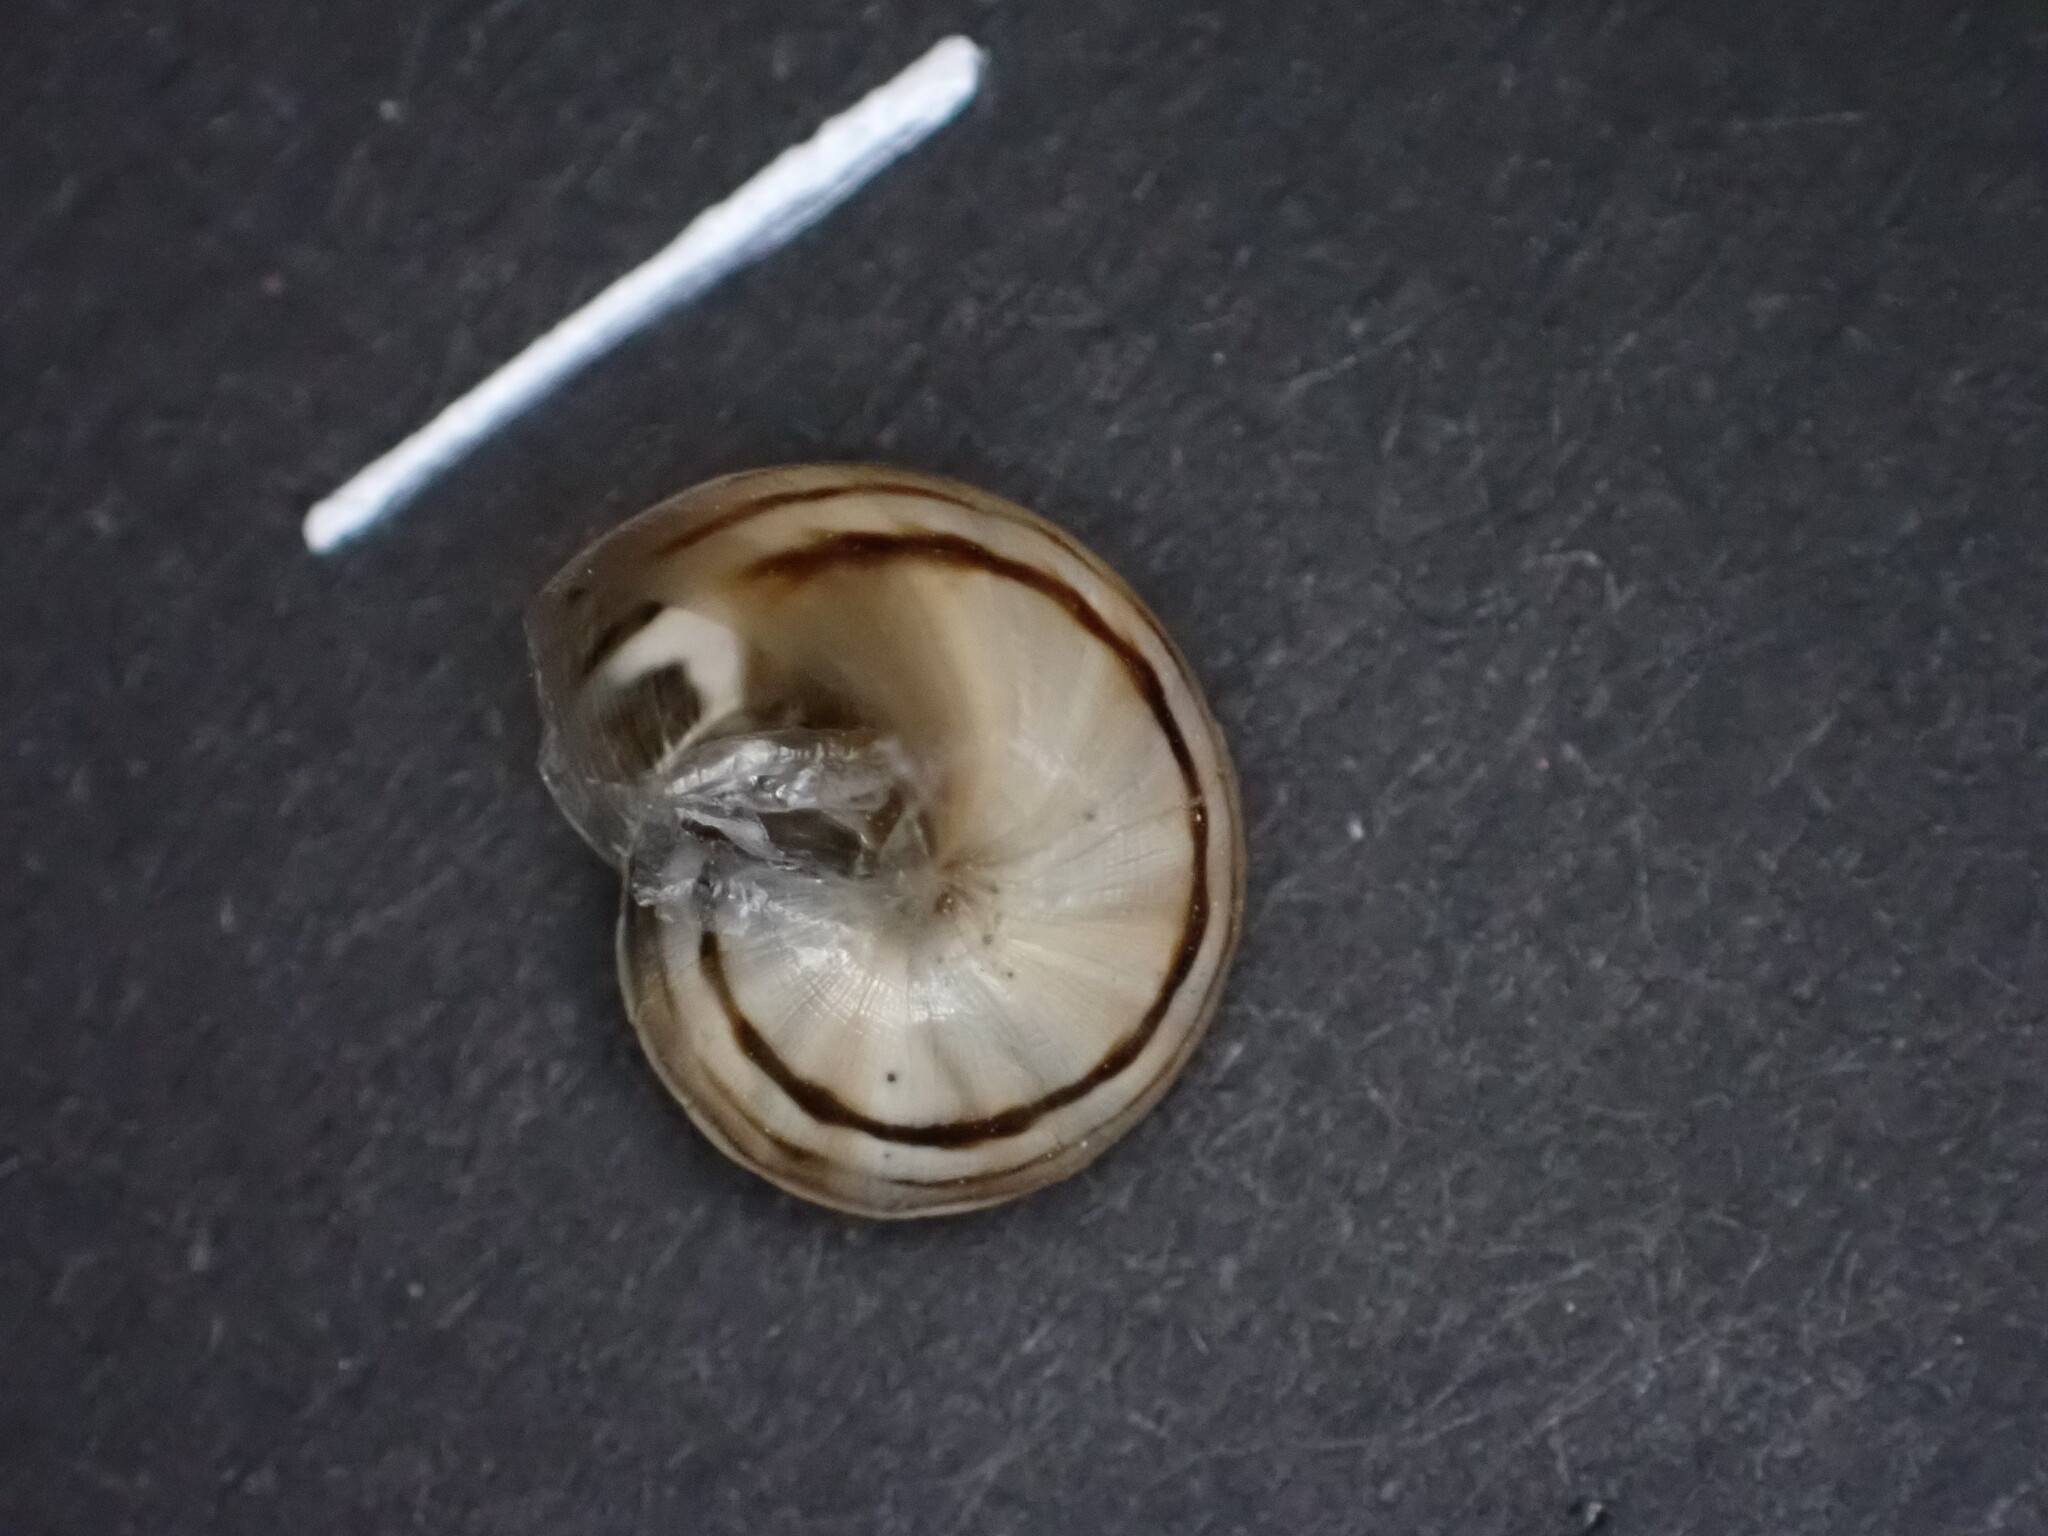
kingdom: Animalia
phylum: Mollusca
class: Gastropoda
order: Stylommatophora
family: Helicidae
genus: Theba
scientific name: Theba pisana
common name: White snail
